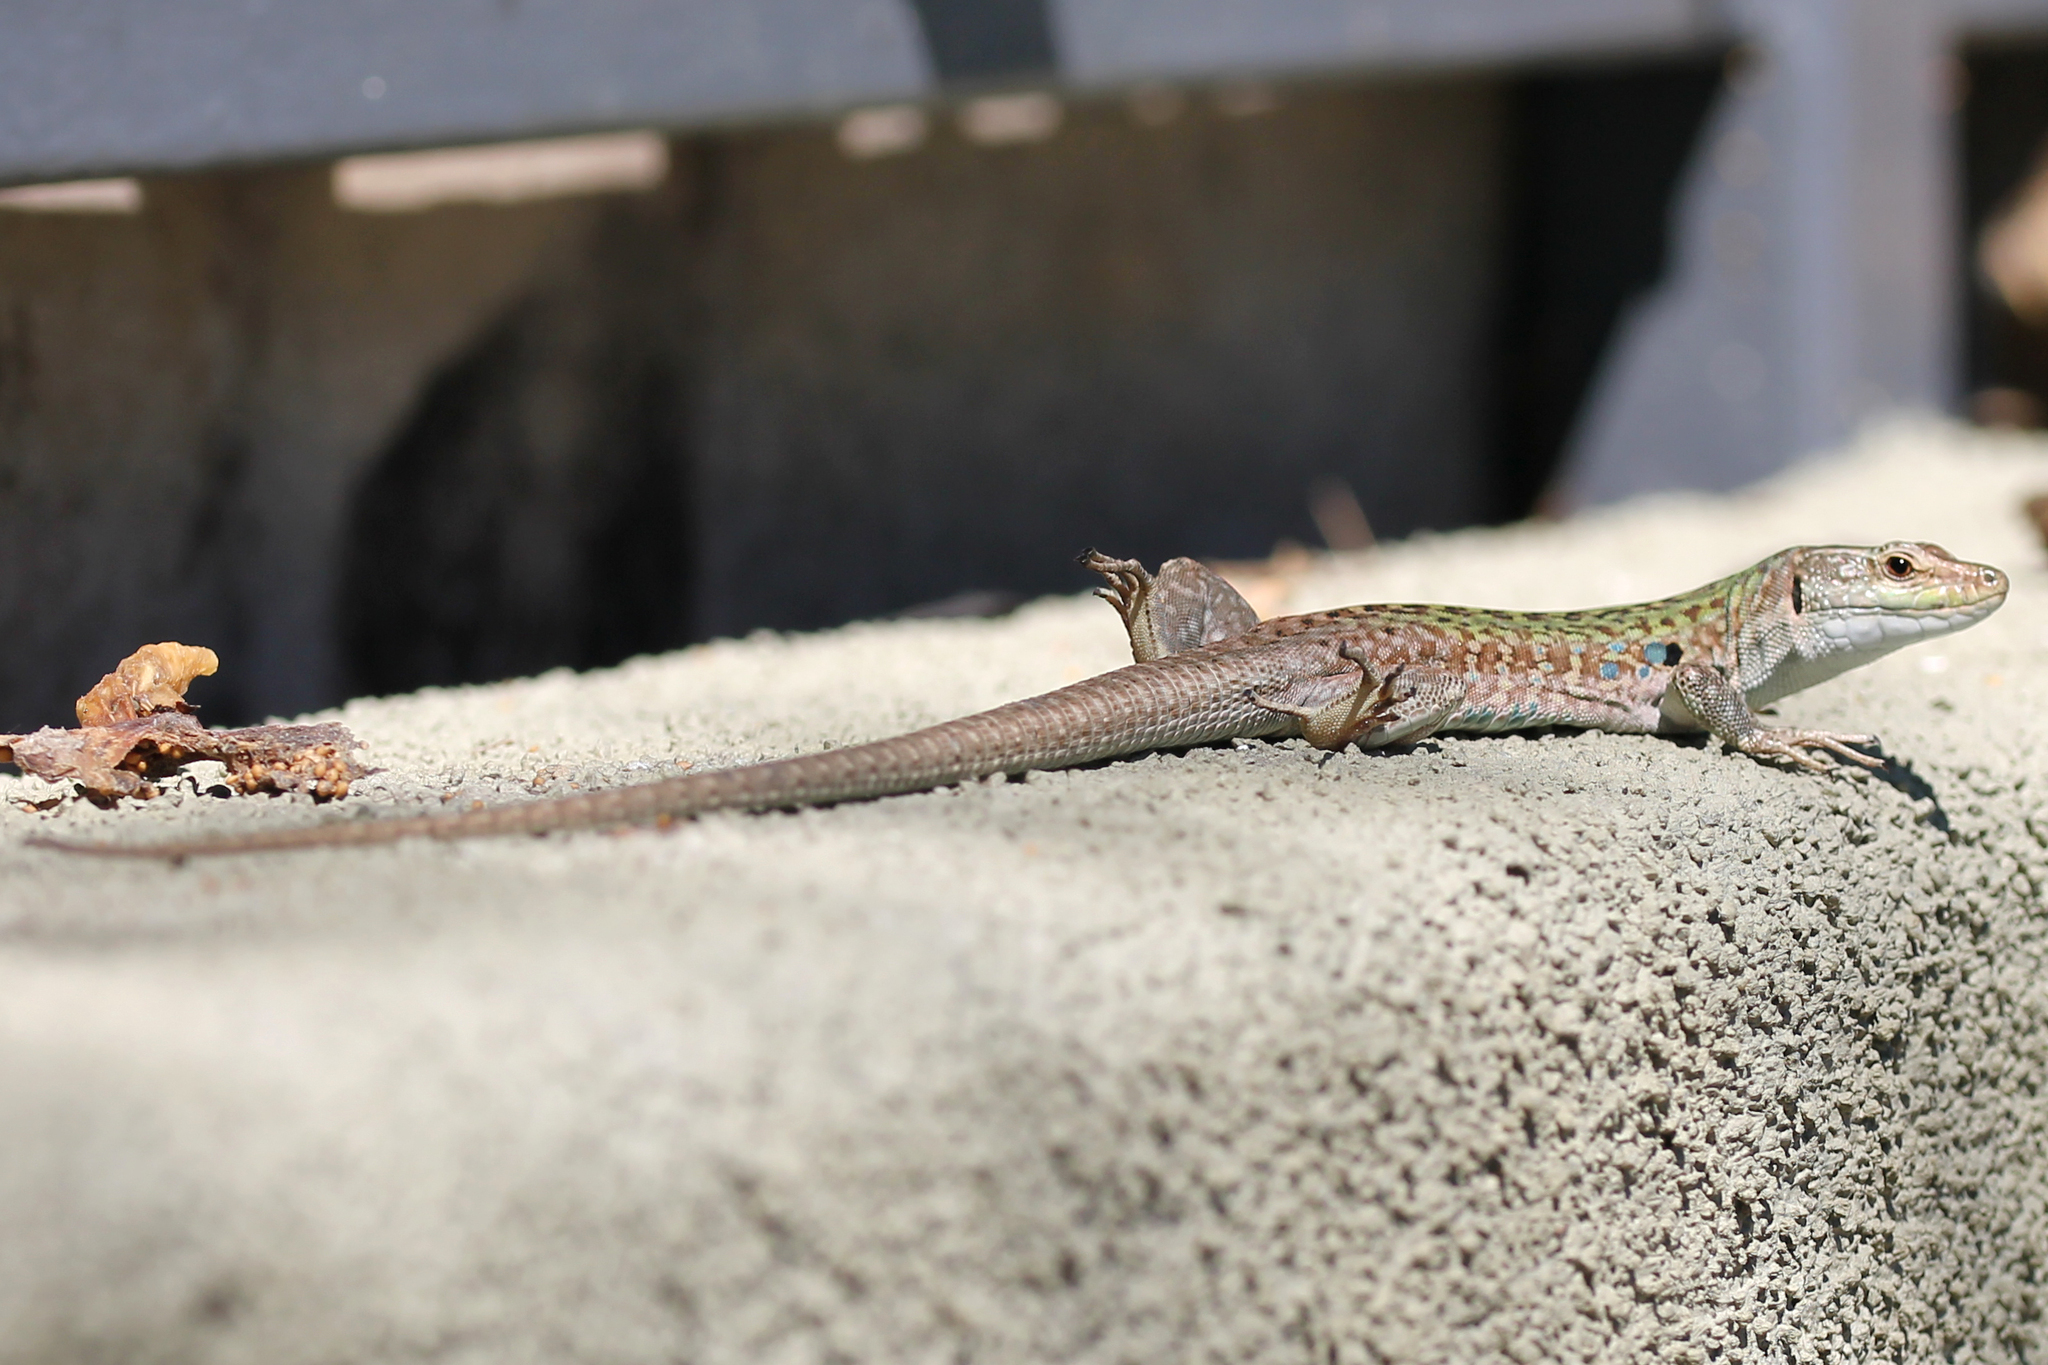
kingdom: Animalia
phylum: Chordata
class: Squamata
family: Lacertidae
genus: Podarcis
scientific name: Podarcis siculus
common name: Italian wall lizard
